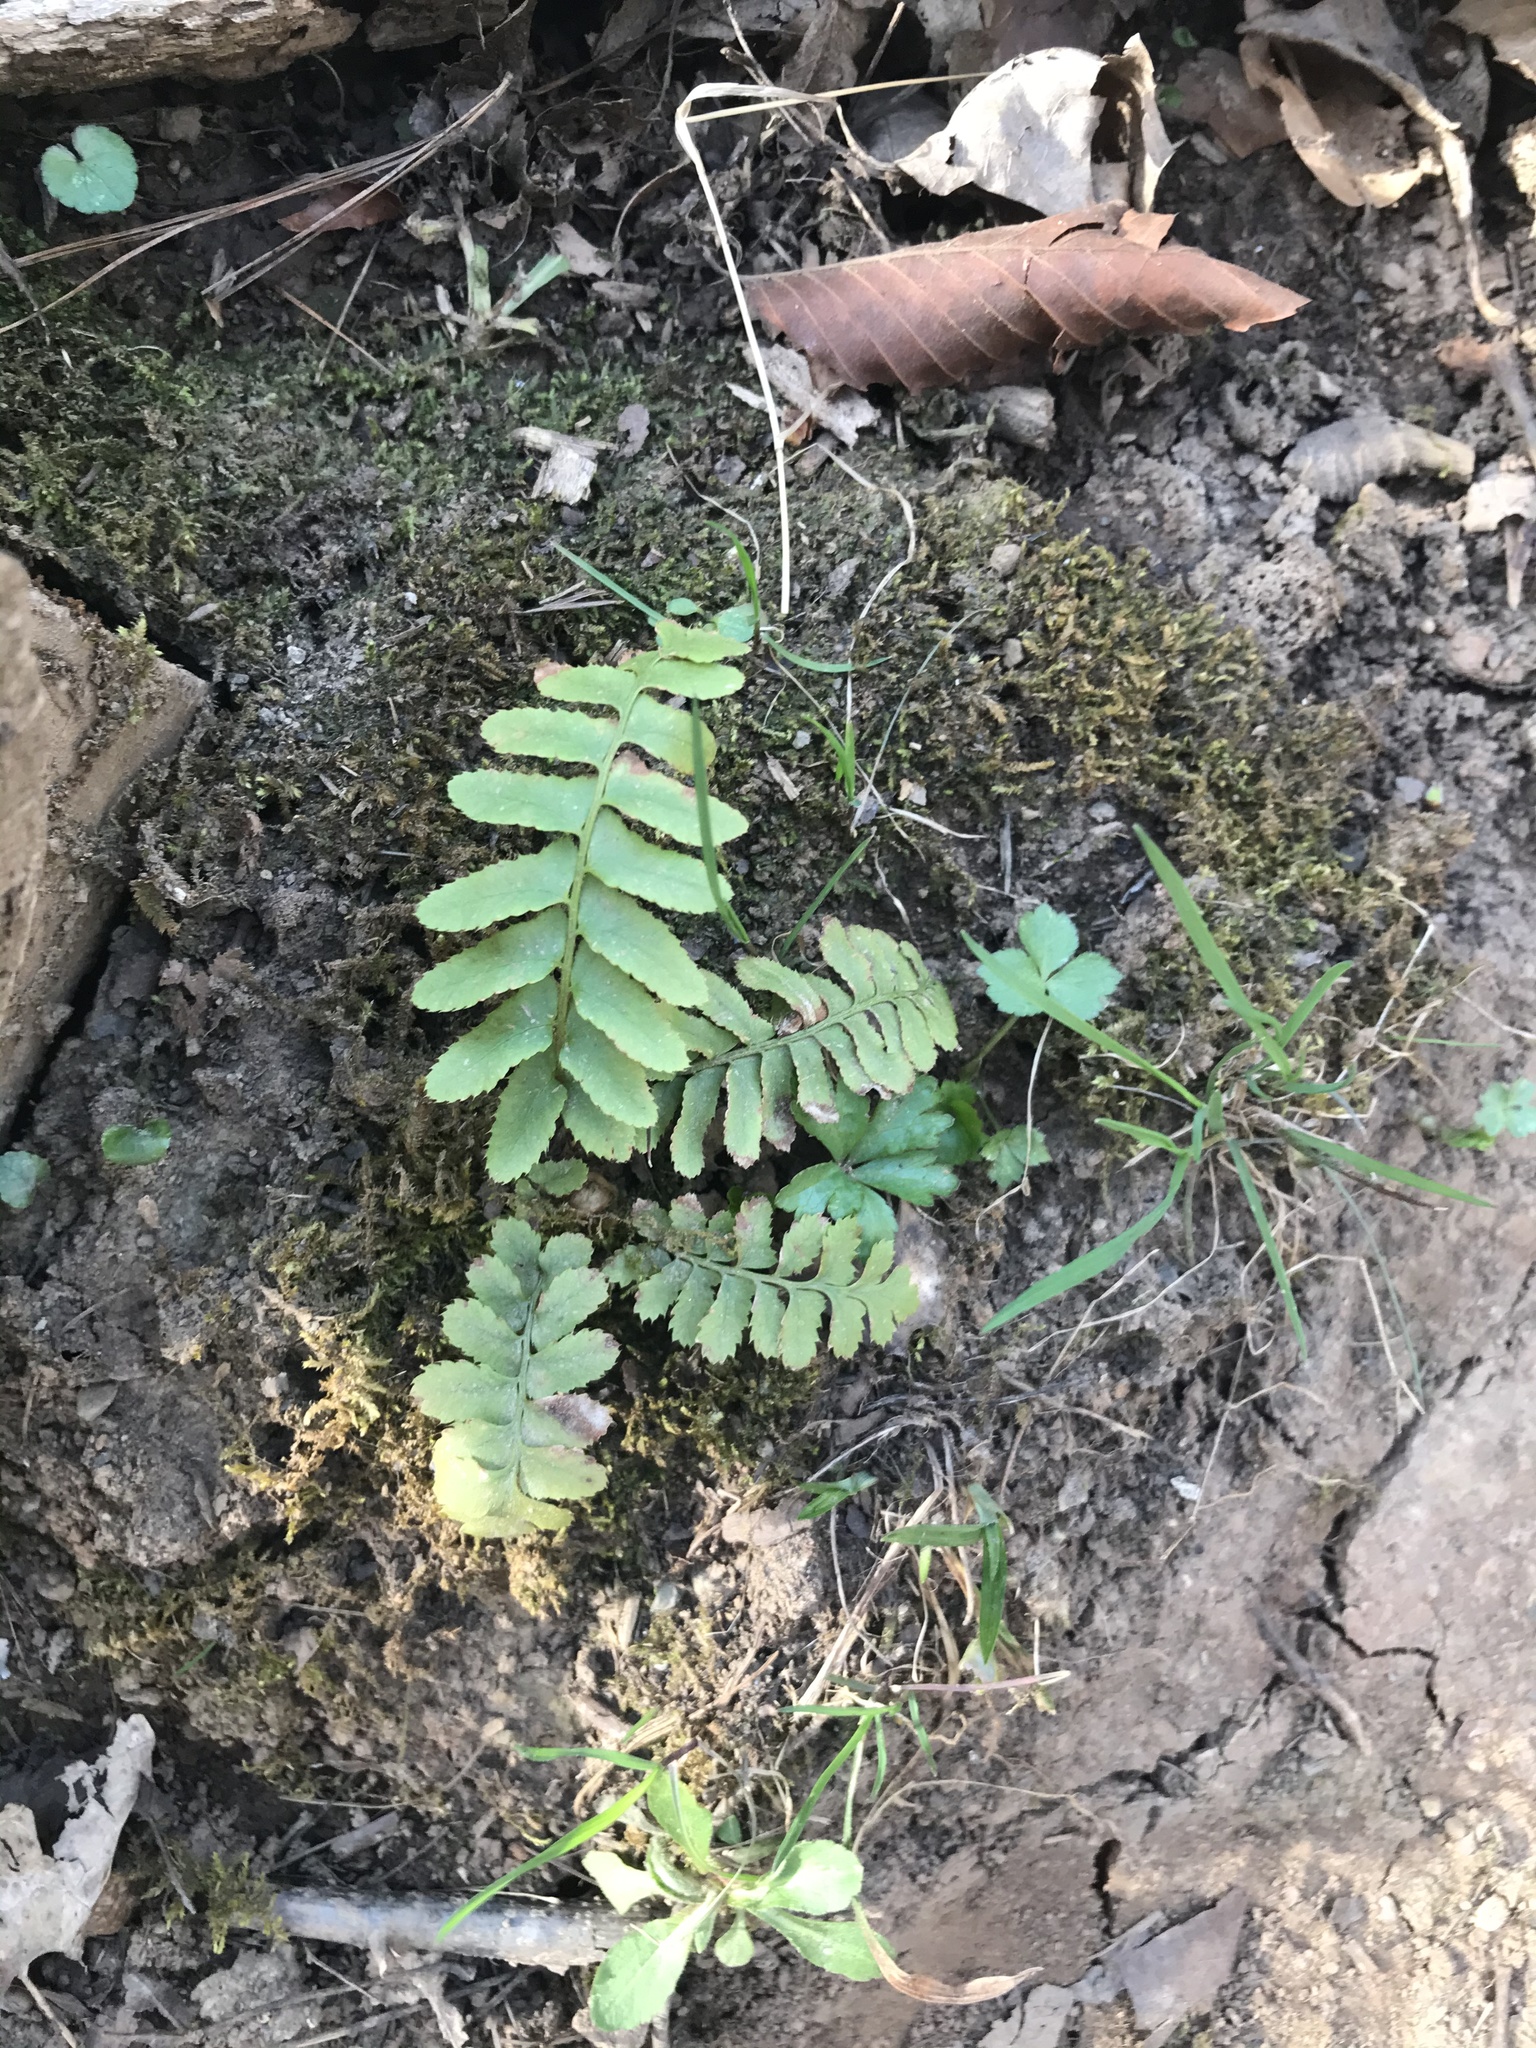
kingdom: Plantae
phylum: Tracheophyta
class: Polypodiopsida
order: Polypodiales
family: Dryopteridaceae
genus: Polystichum
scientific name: Polystichum acrostichoides
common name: Christmas fern
